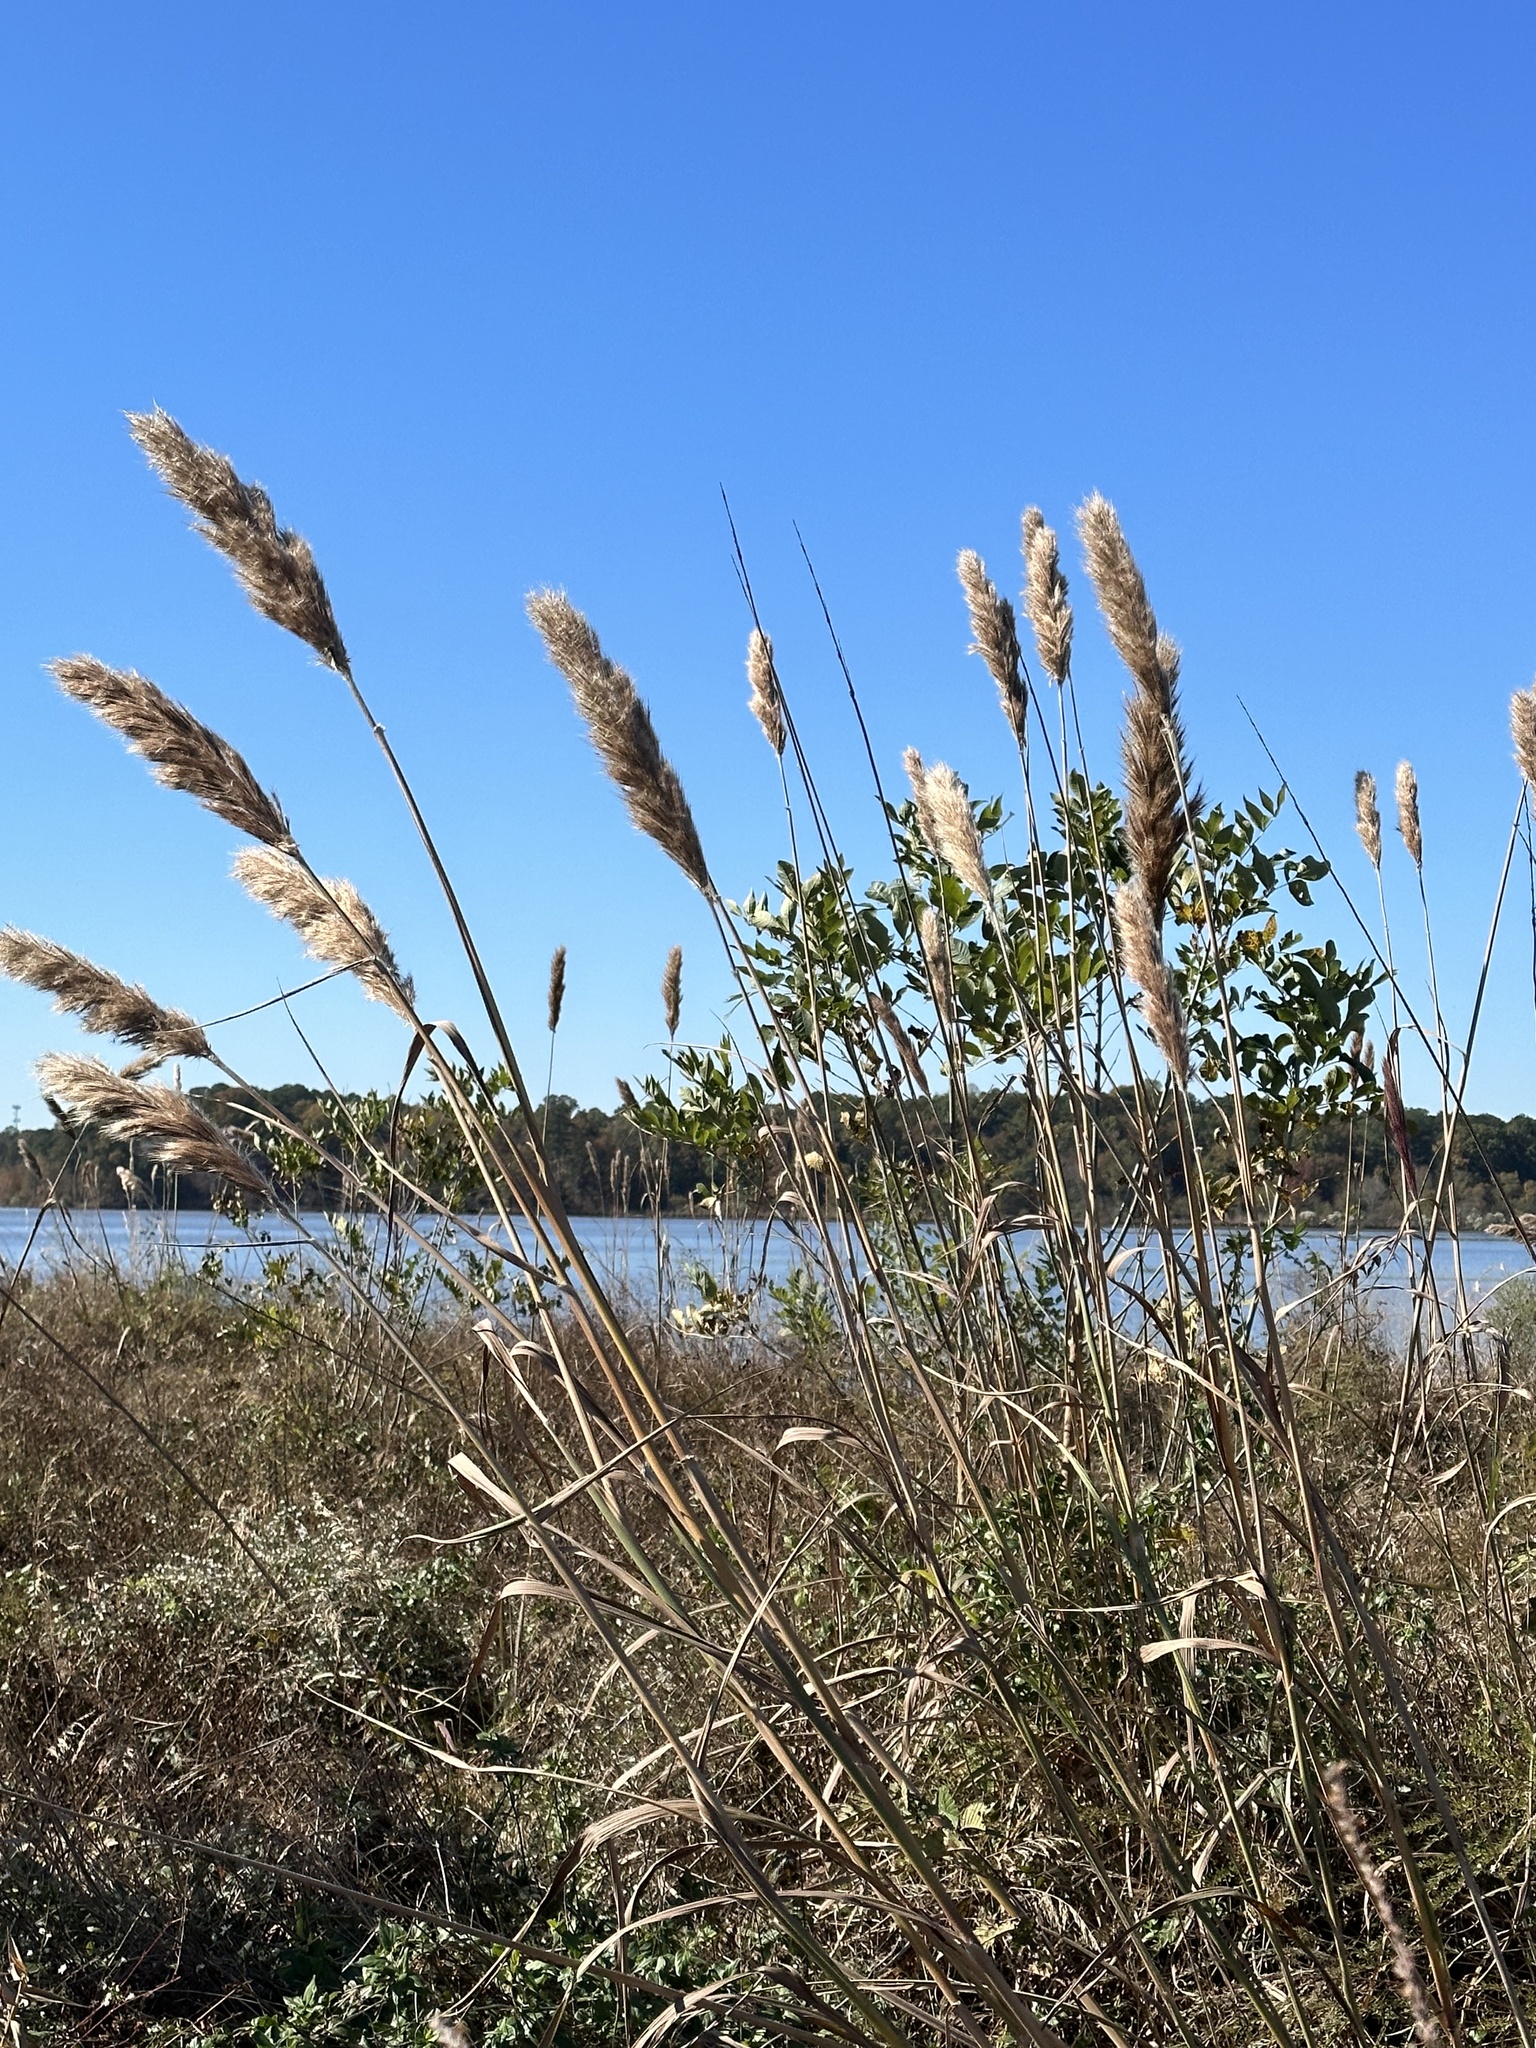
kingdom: Plantae
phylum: Tracheophyta
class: Liliopsida
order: Poales
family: Poaceae
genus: Erianthus
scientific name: Erianthus giganteus
